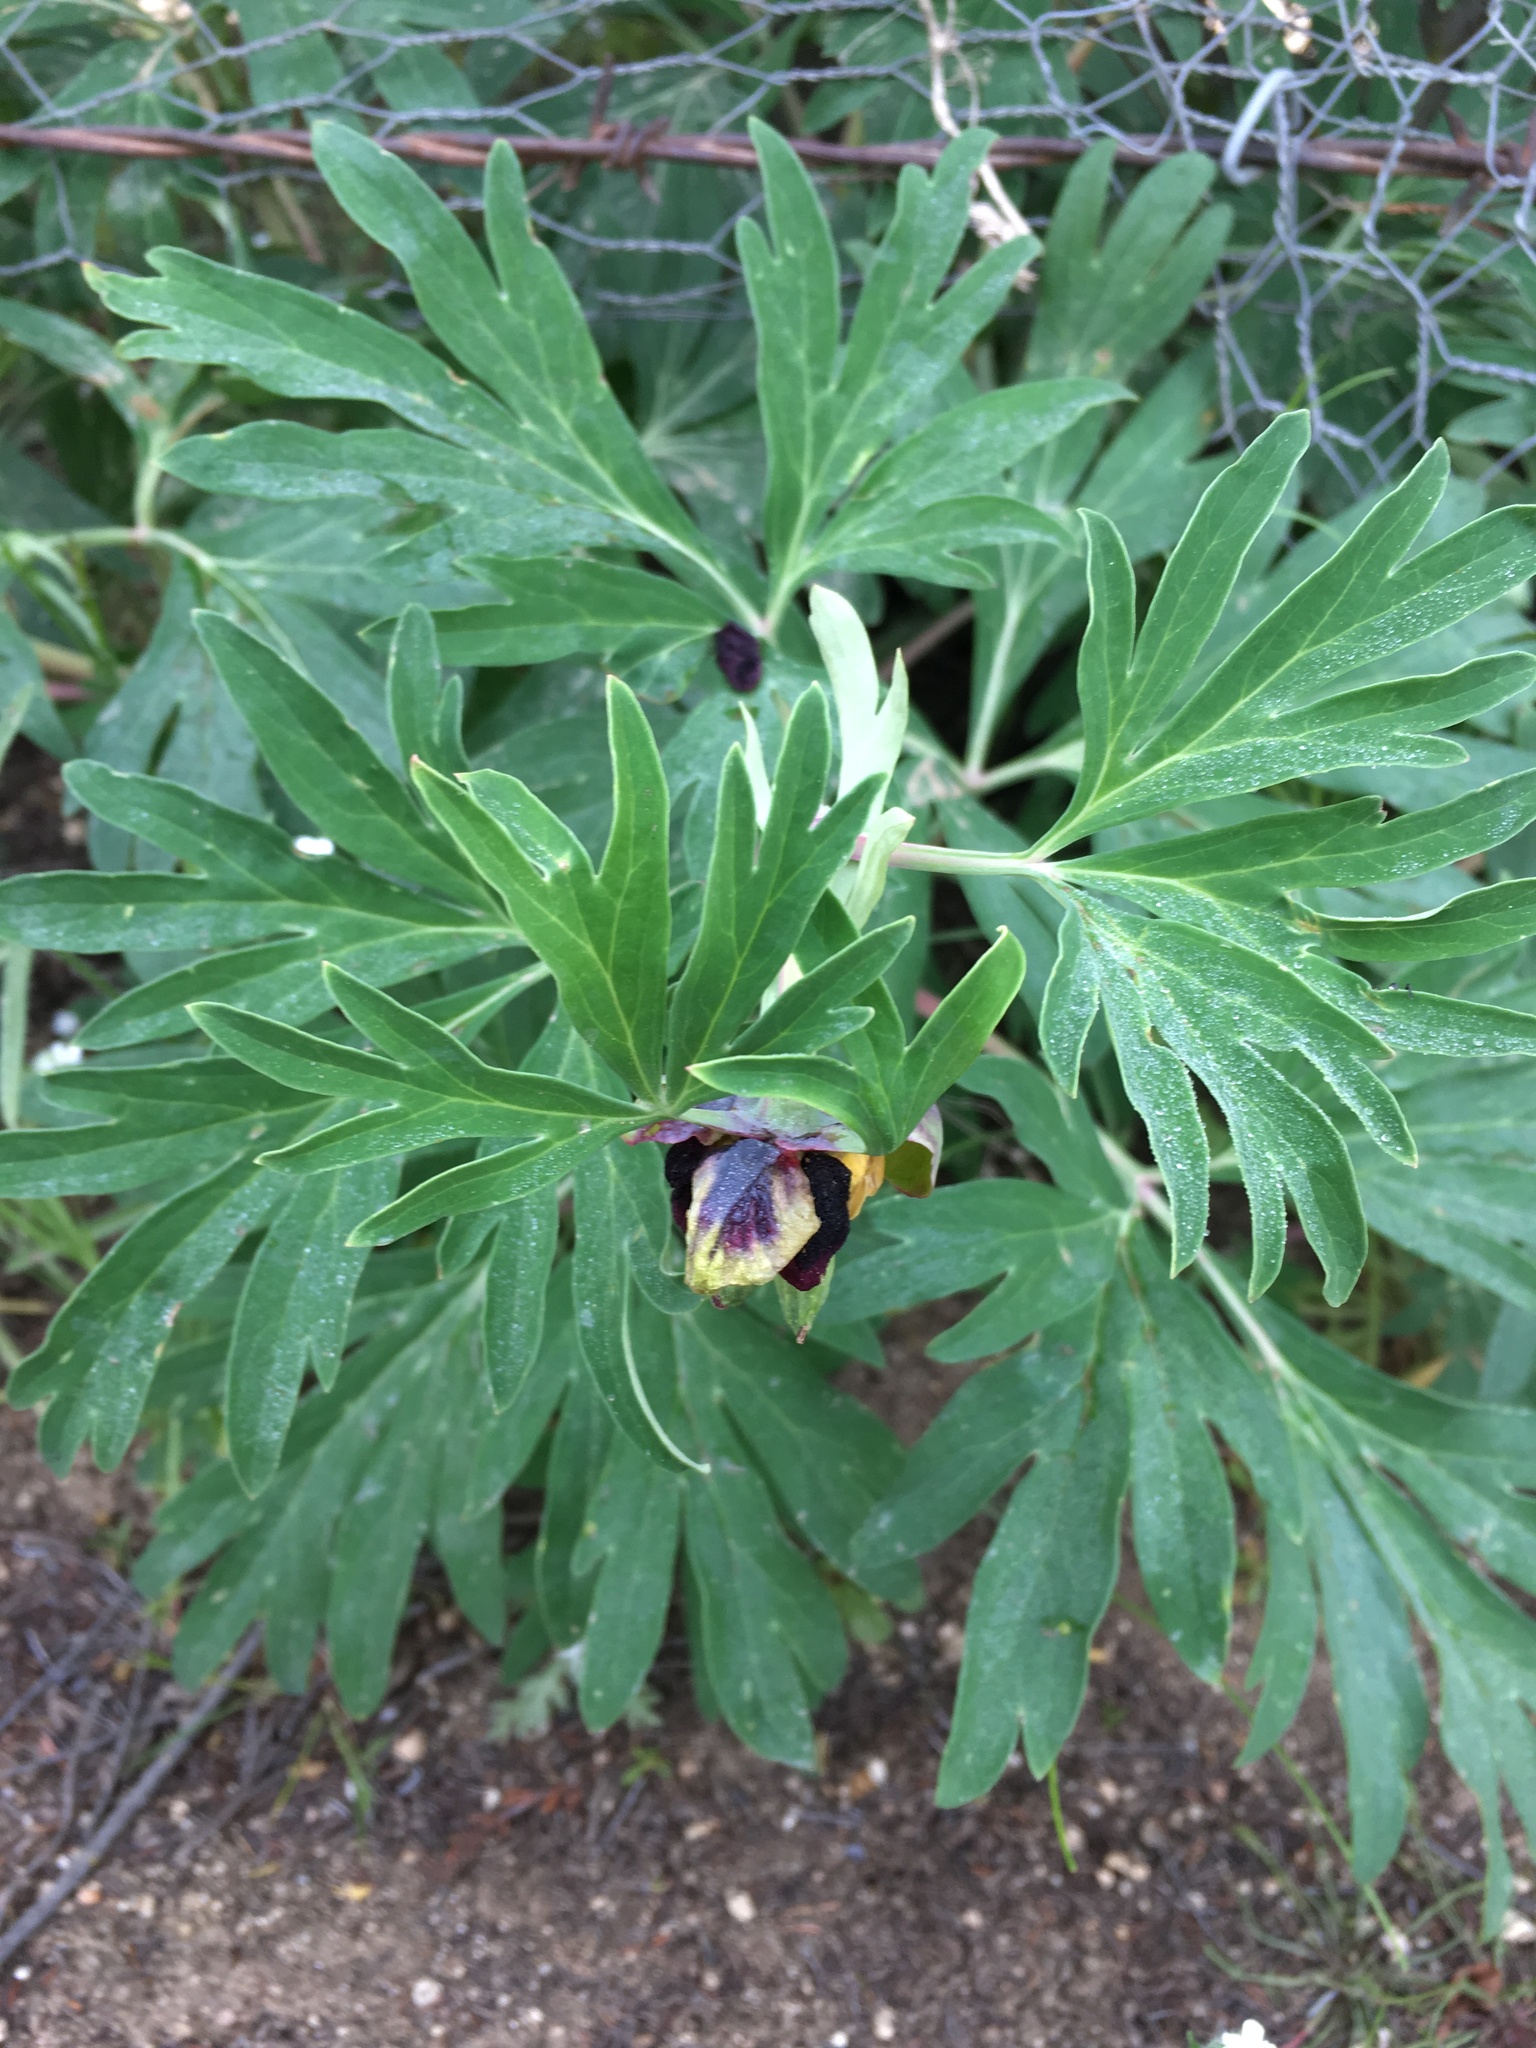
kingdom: Plantae
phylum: Tracheophyta
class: Magnoliopsida
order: Saxifragales
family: Paeoniaceae
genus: Paeonia
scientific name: Paeonia californica
